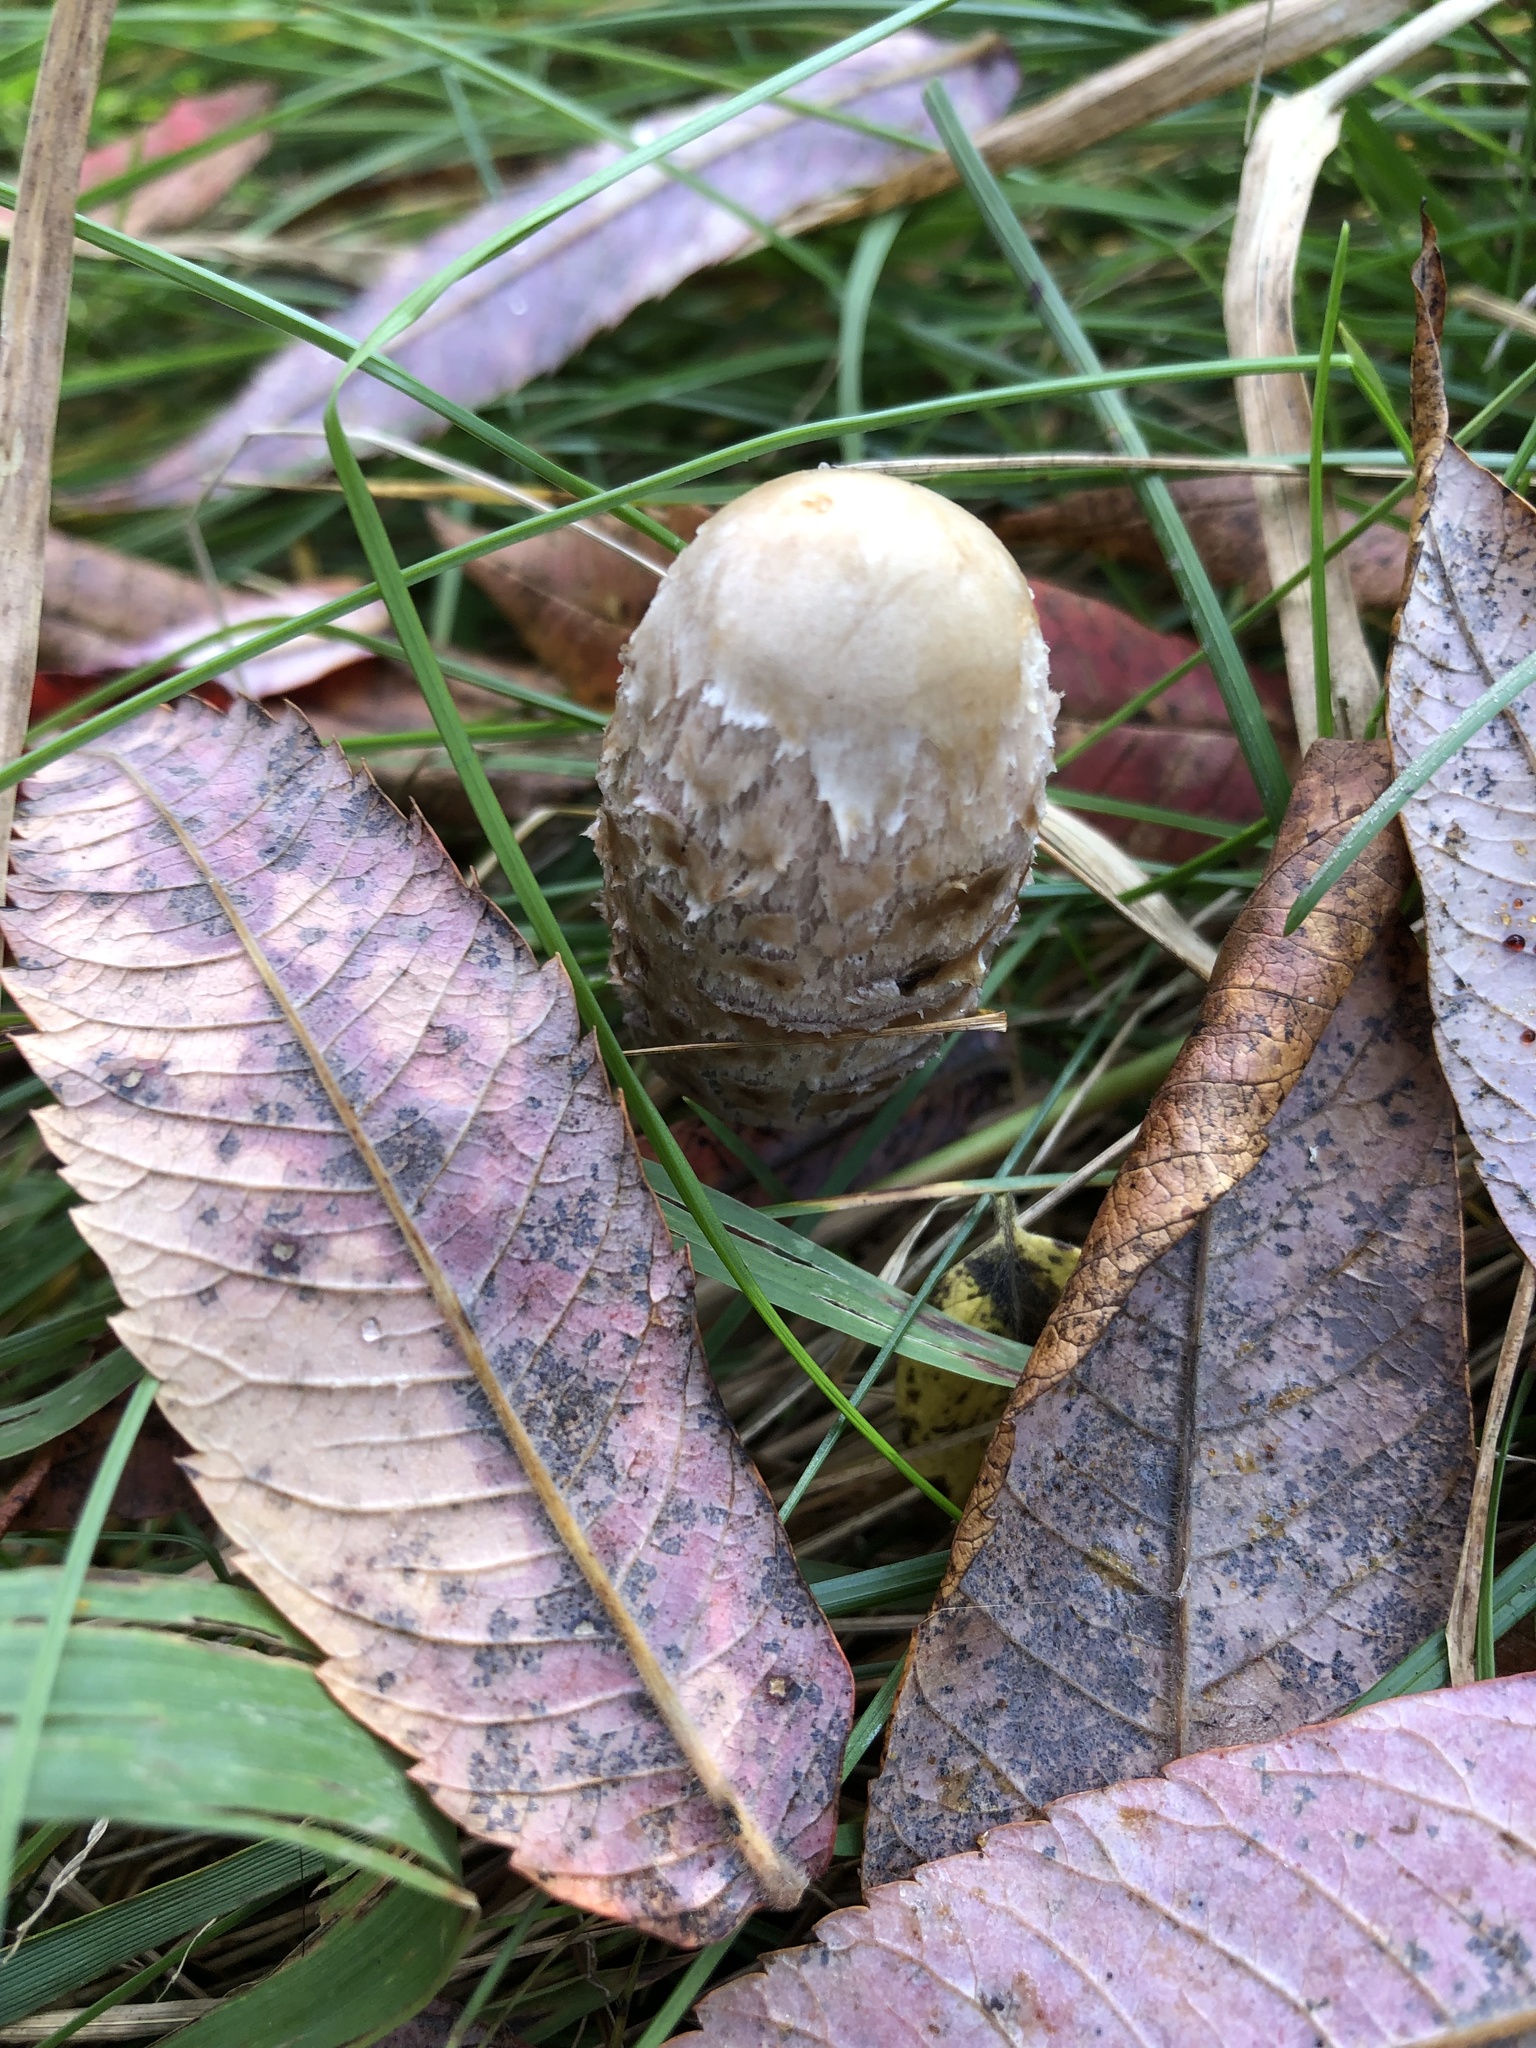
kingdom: Fungi
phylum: Basidiomycota
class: Agaricomycetes
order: Agaricales
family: Agaricaceae
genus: Coprinus
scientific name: Coprinus comatus
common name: Lawyer's wig
